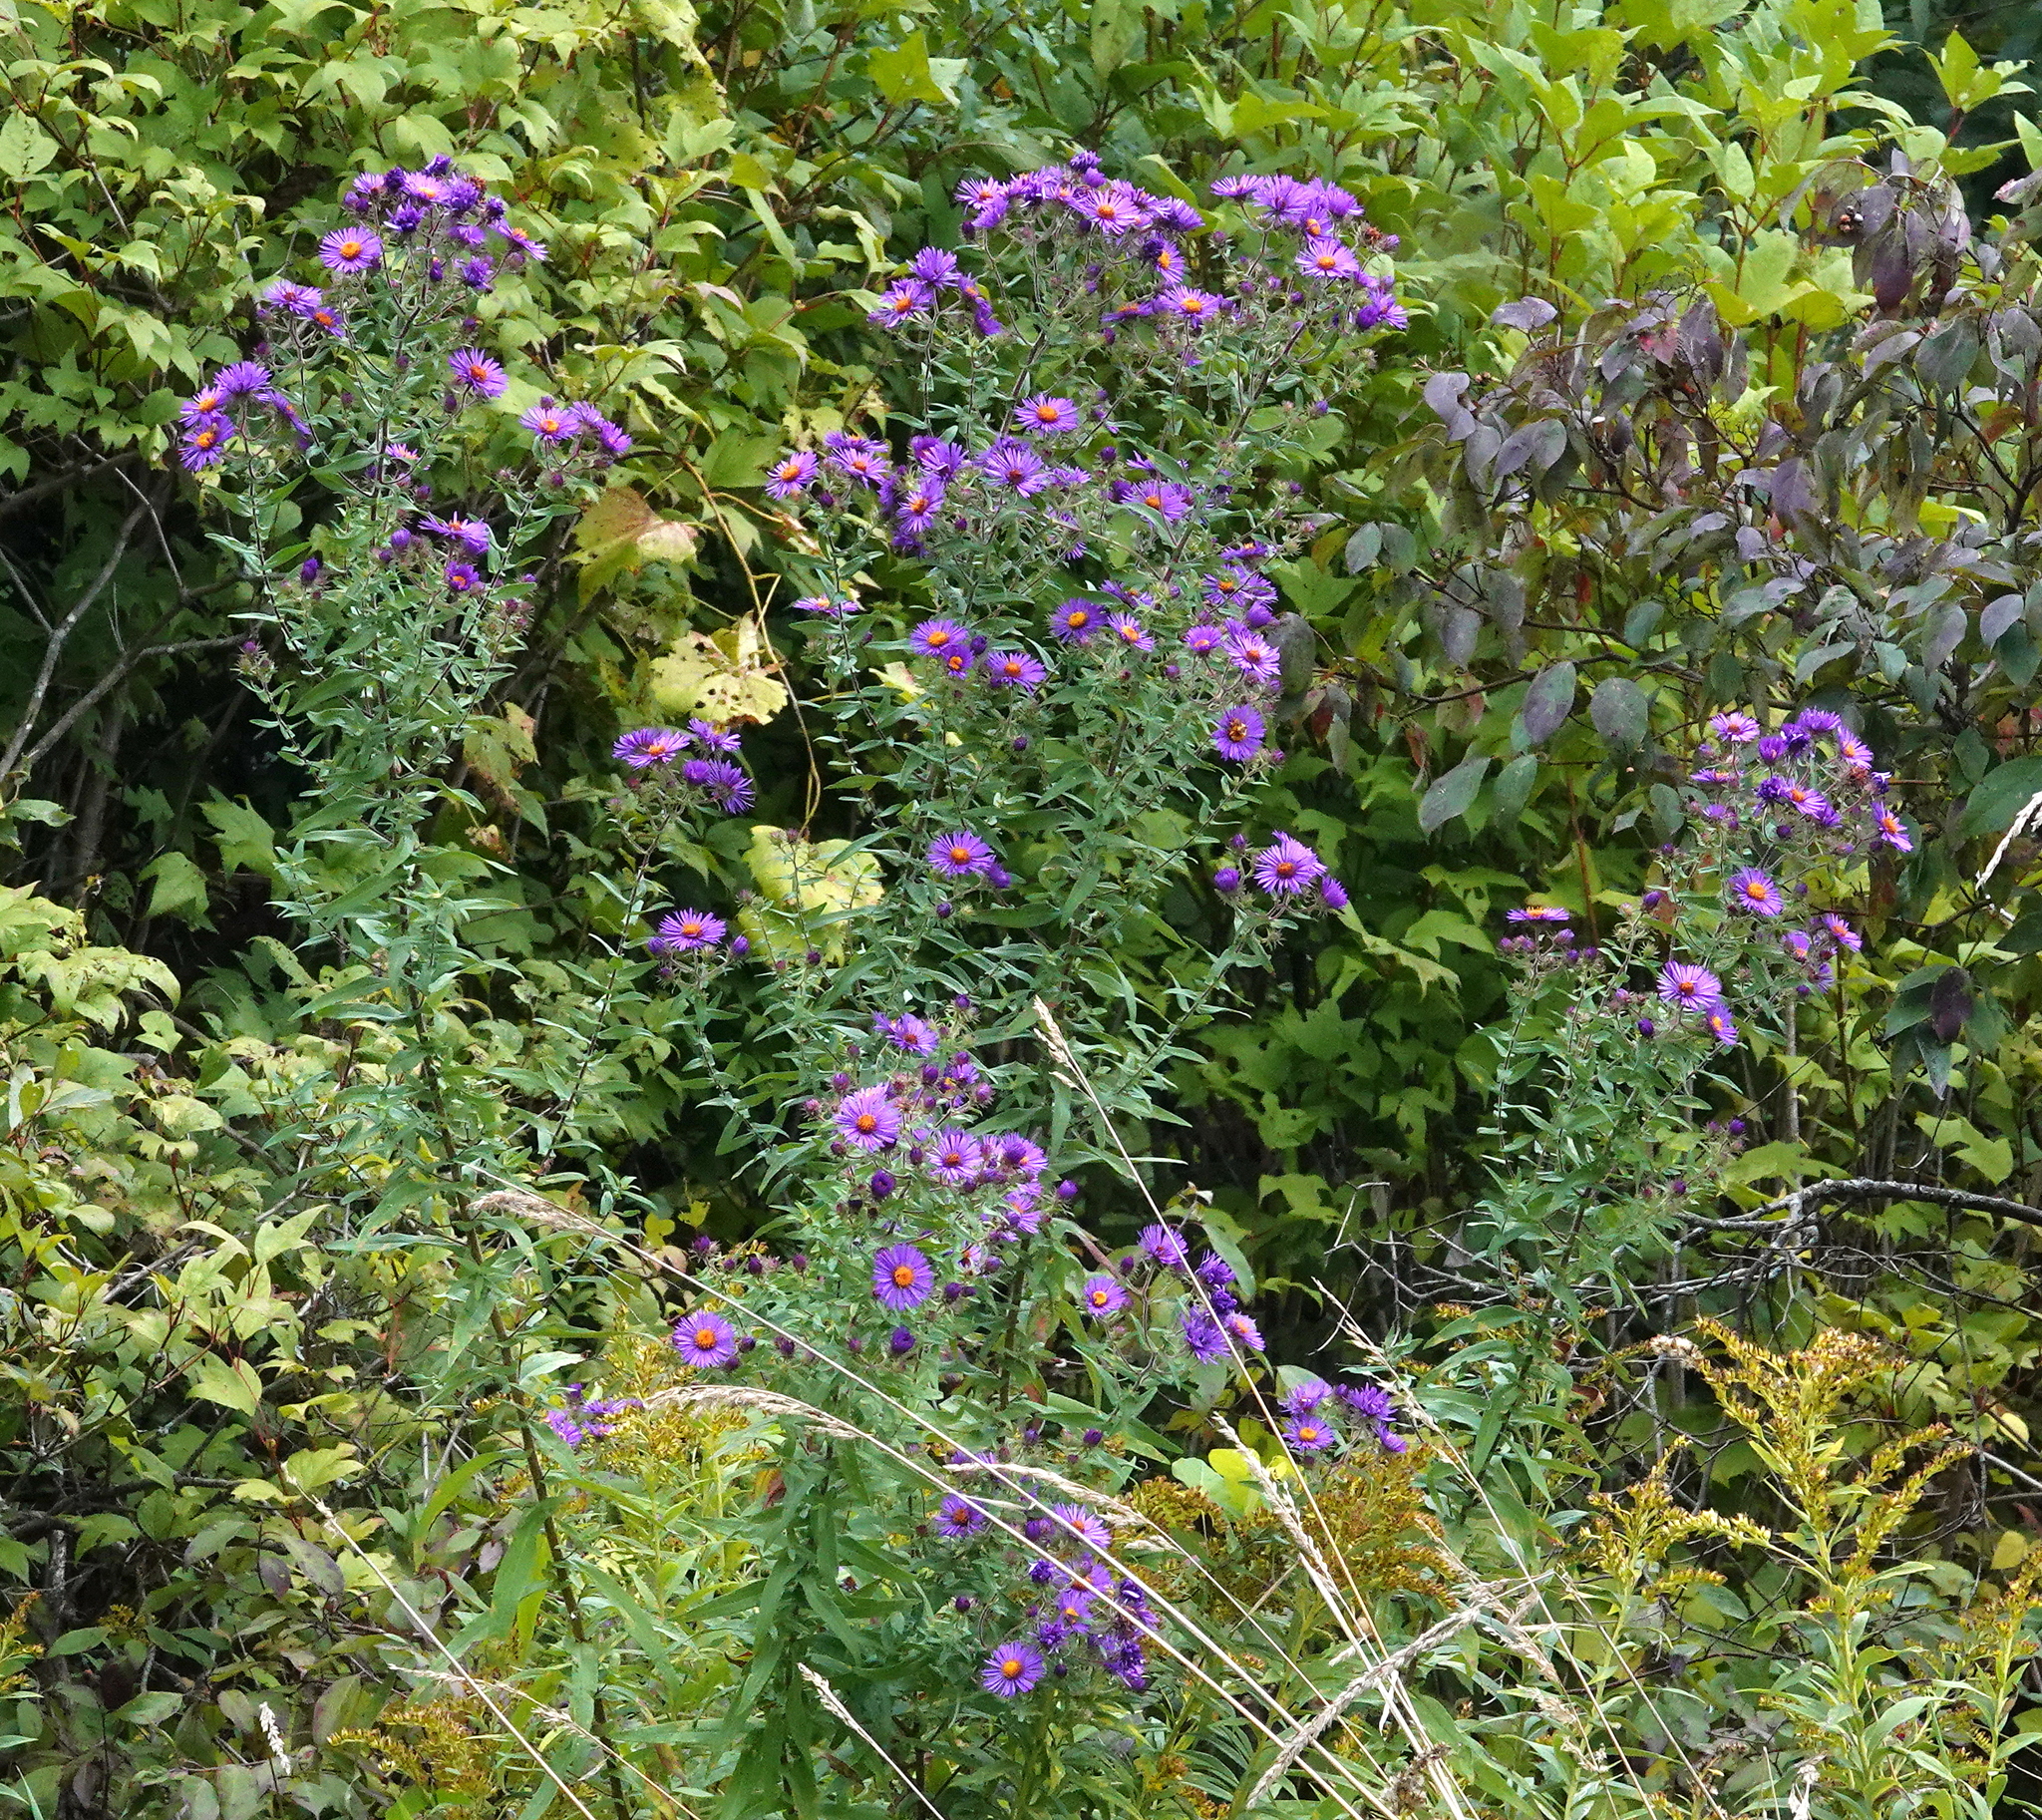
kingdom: Plantae
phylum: Tracheophyta
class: Magnoliopsida
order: Asterales
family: Asteraceae
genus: Symphyotrichum
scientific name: Symphyotrichum novae-angliae
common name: Michaelmas daisy
